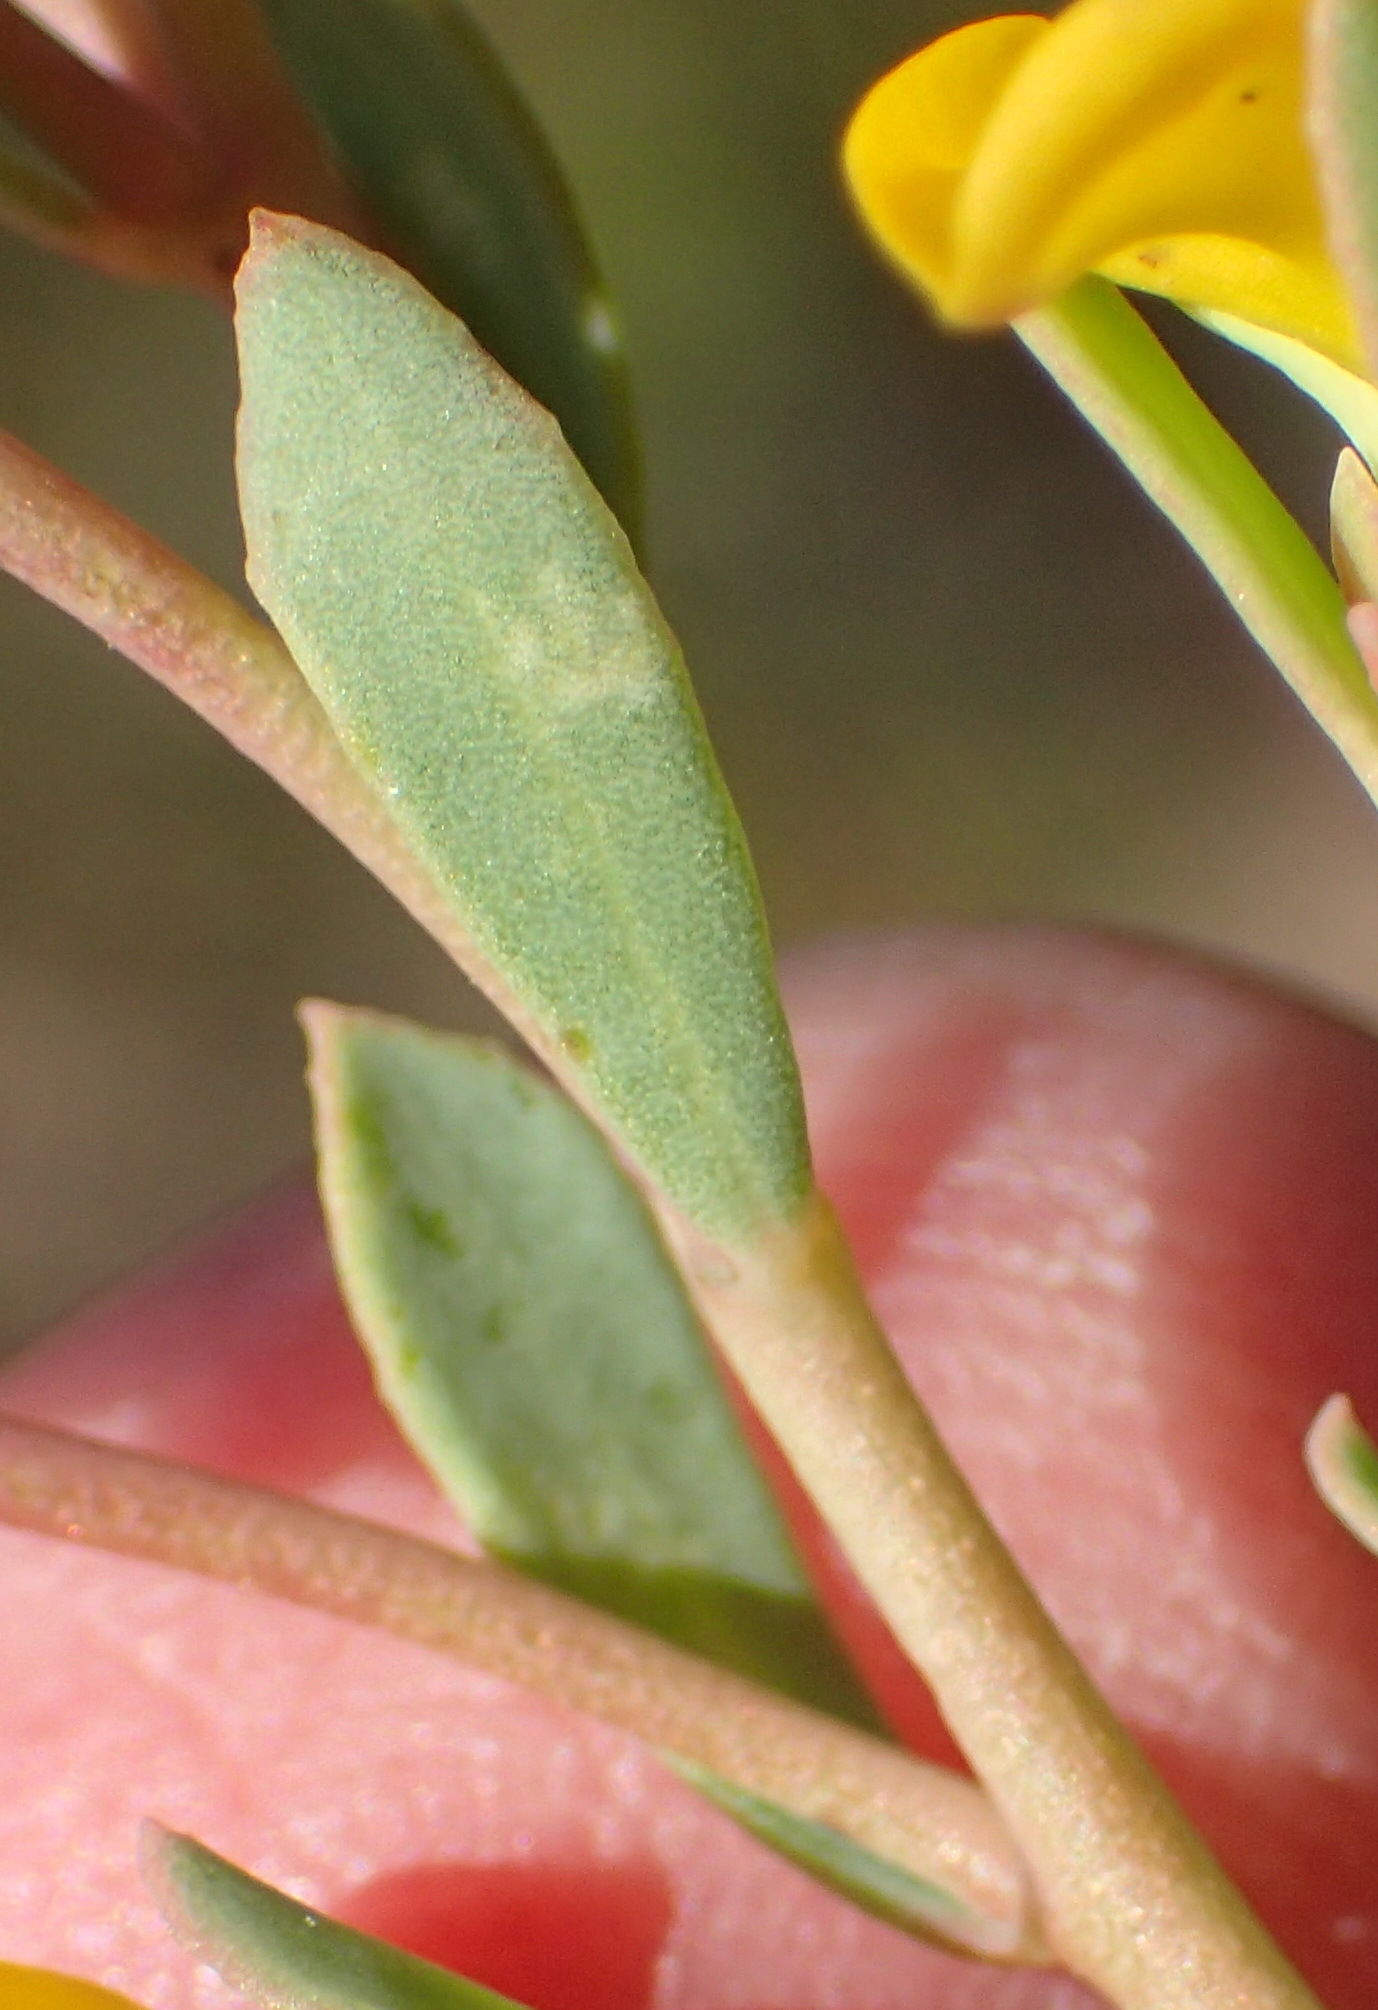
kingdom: Plantae
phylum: Tracheophyta
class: Magnoliopsida
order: Fabales
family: Fabaceae
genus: Rafnia
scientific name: Rafnia capensis
